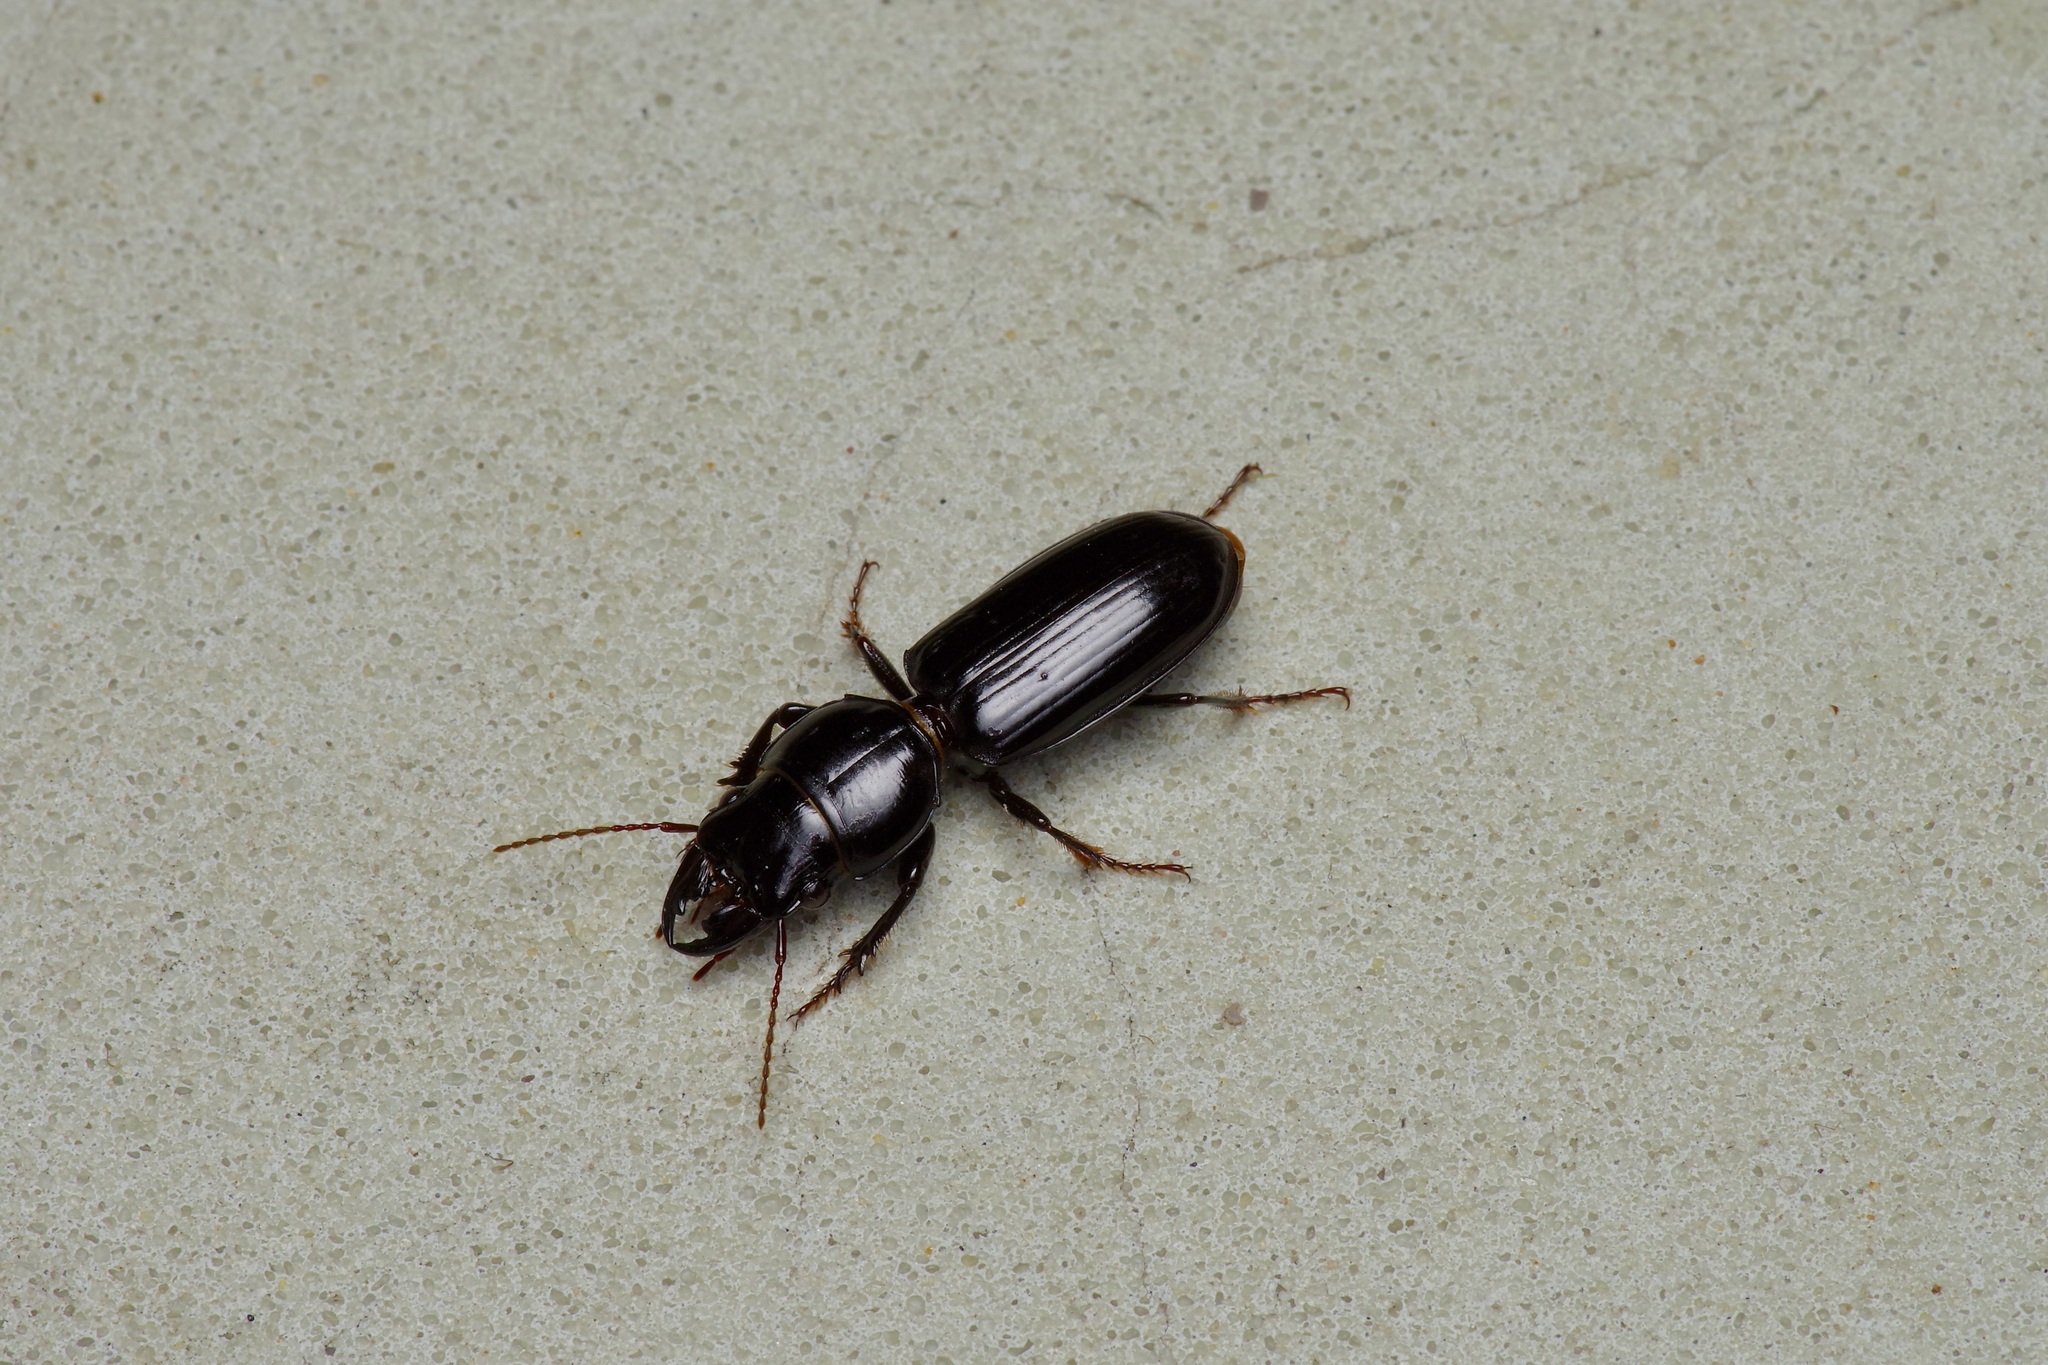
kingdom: Animalia
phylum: Arthropoda
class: Insecta
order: Coleoptera
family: Carabidae
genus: Scarites
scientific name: Scarites subterraneus
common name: Big-headed ground beetle
